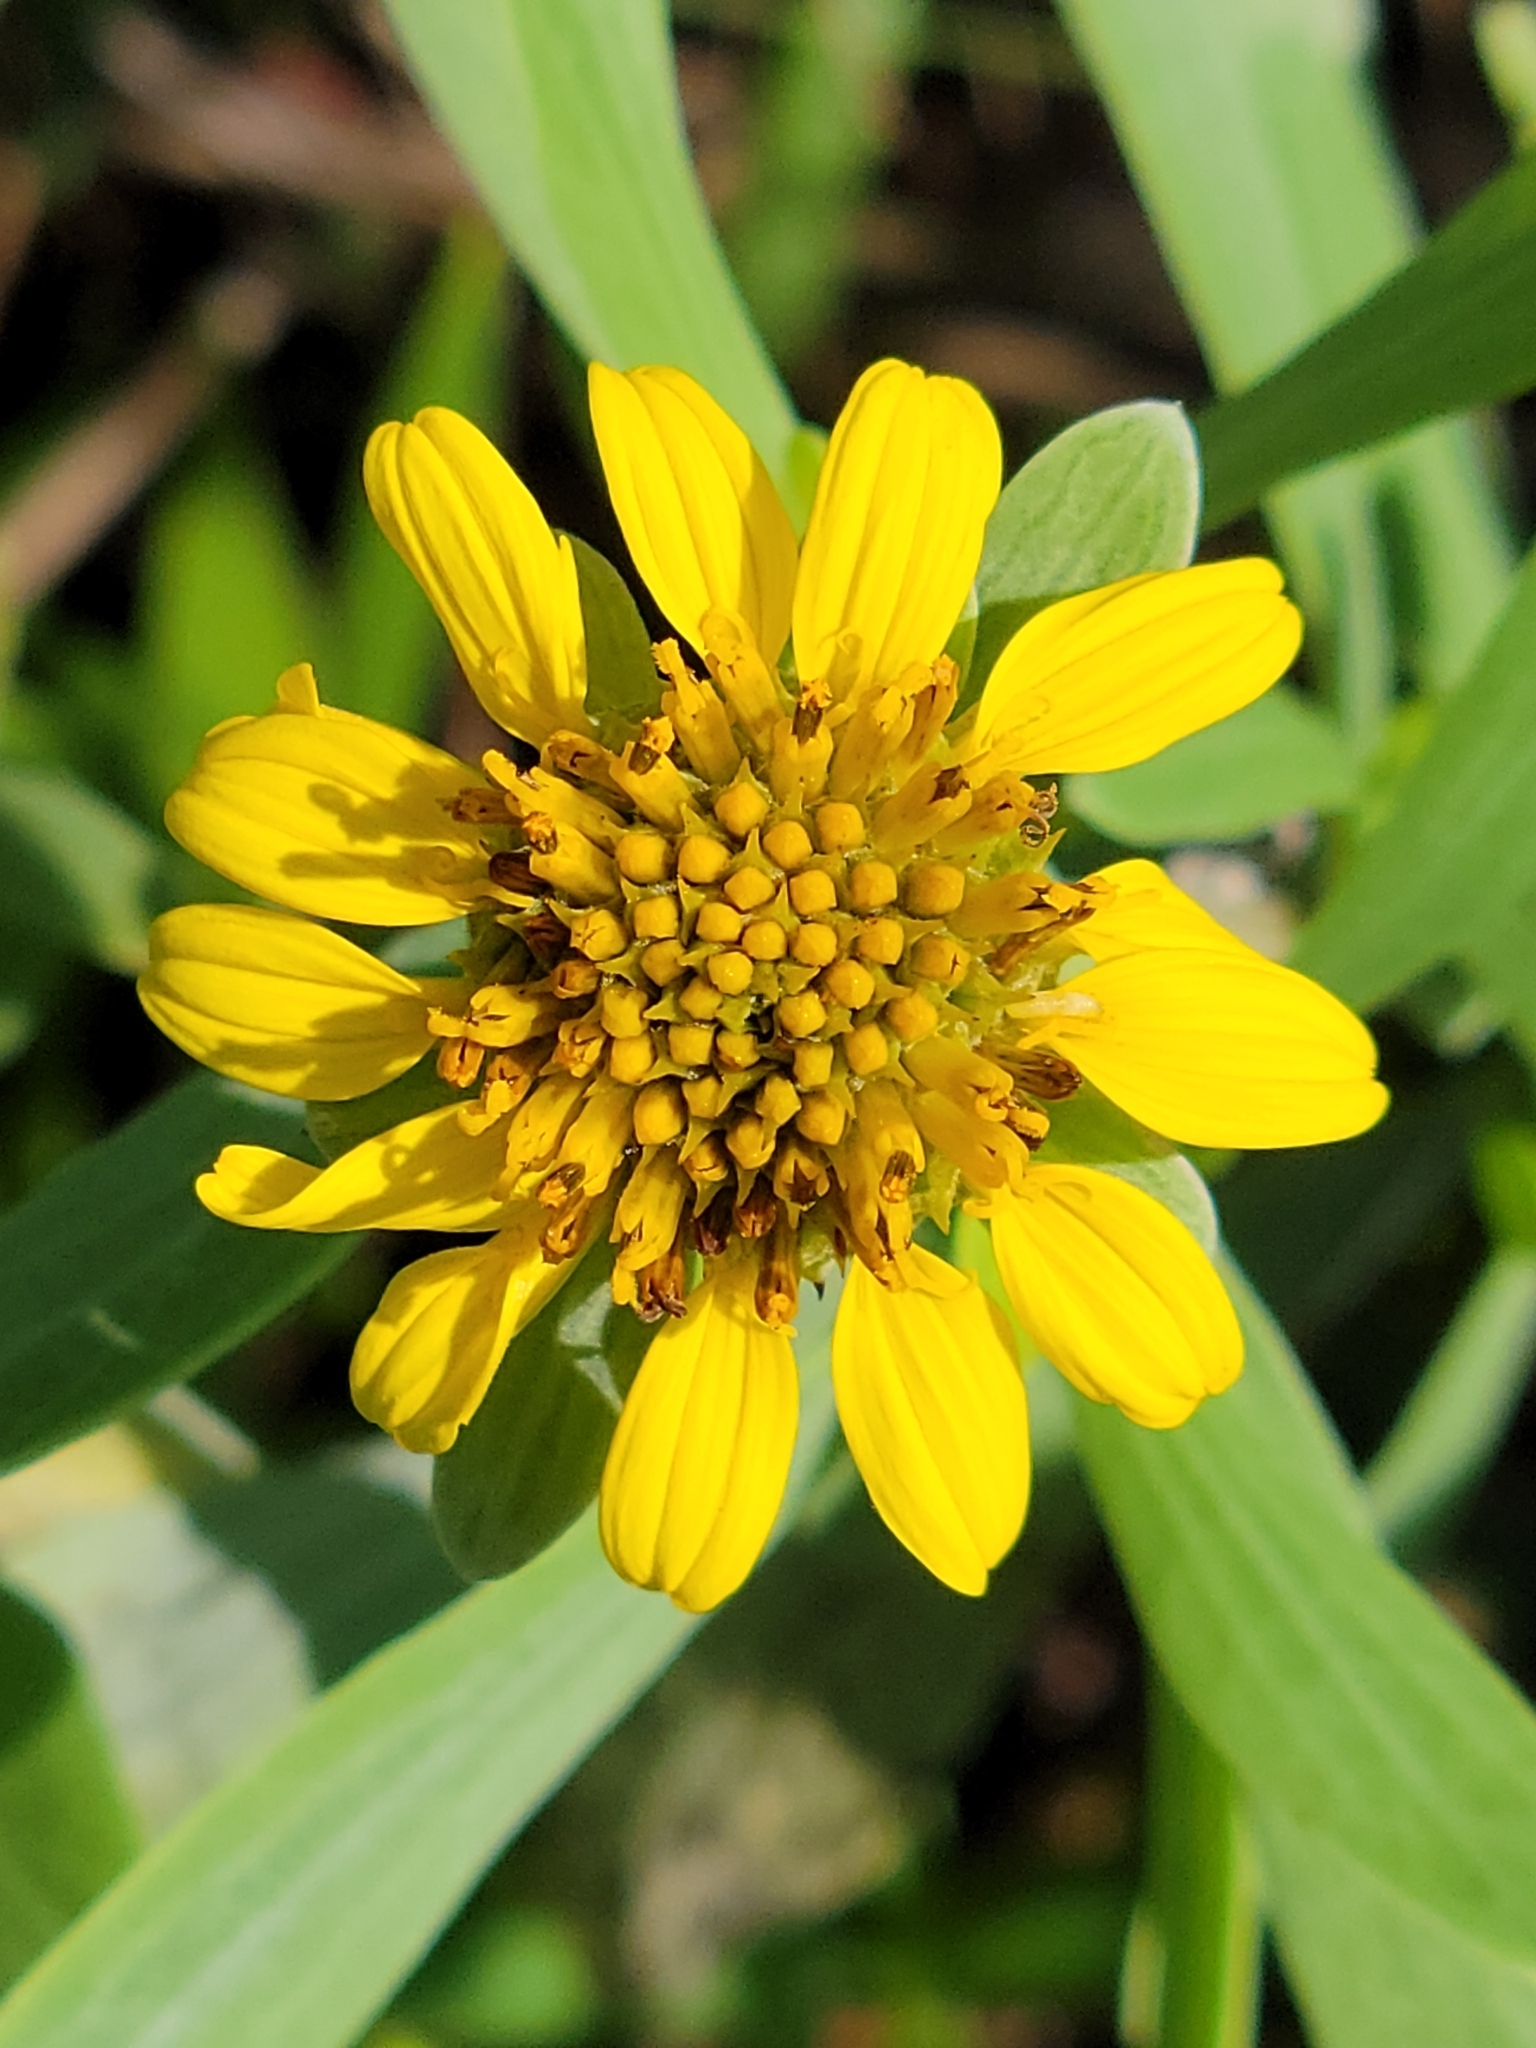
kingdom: Plantae
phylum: Tracheophyta
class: Magnoliopsida
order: Asterales
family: Asteraceae
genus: Borrichia
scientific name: Borrichia frutescens
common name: Sea oxeye
